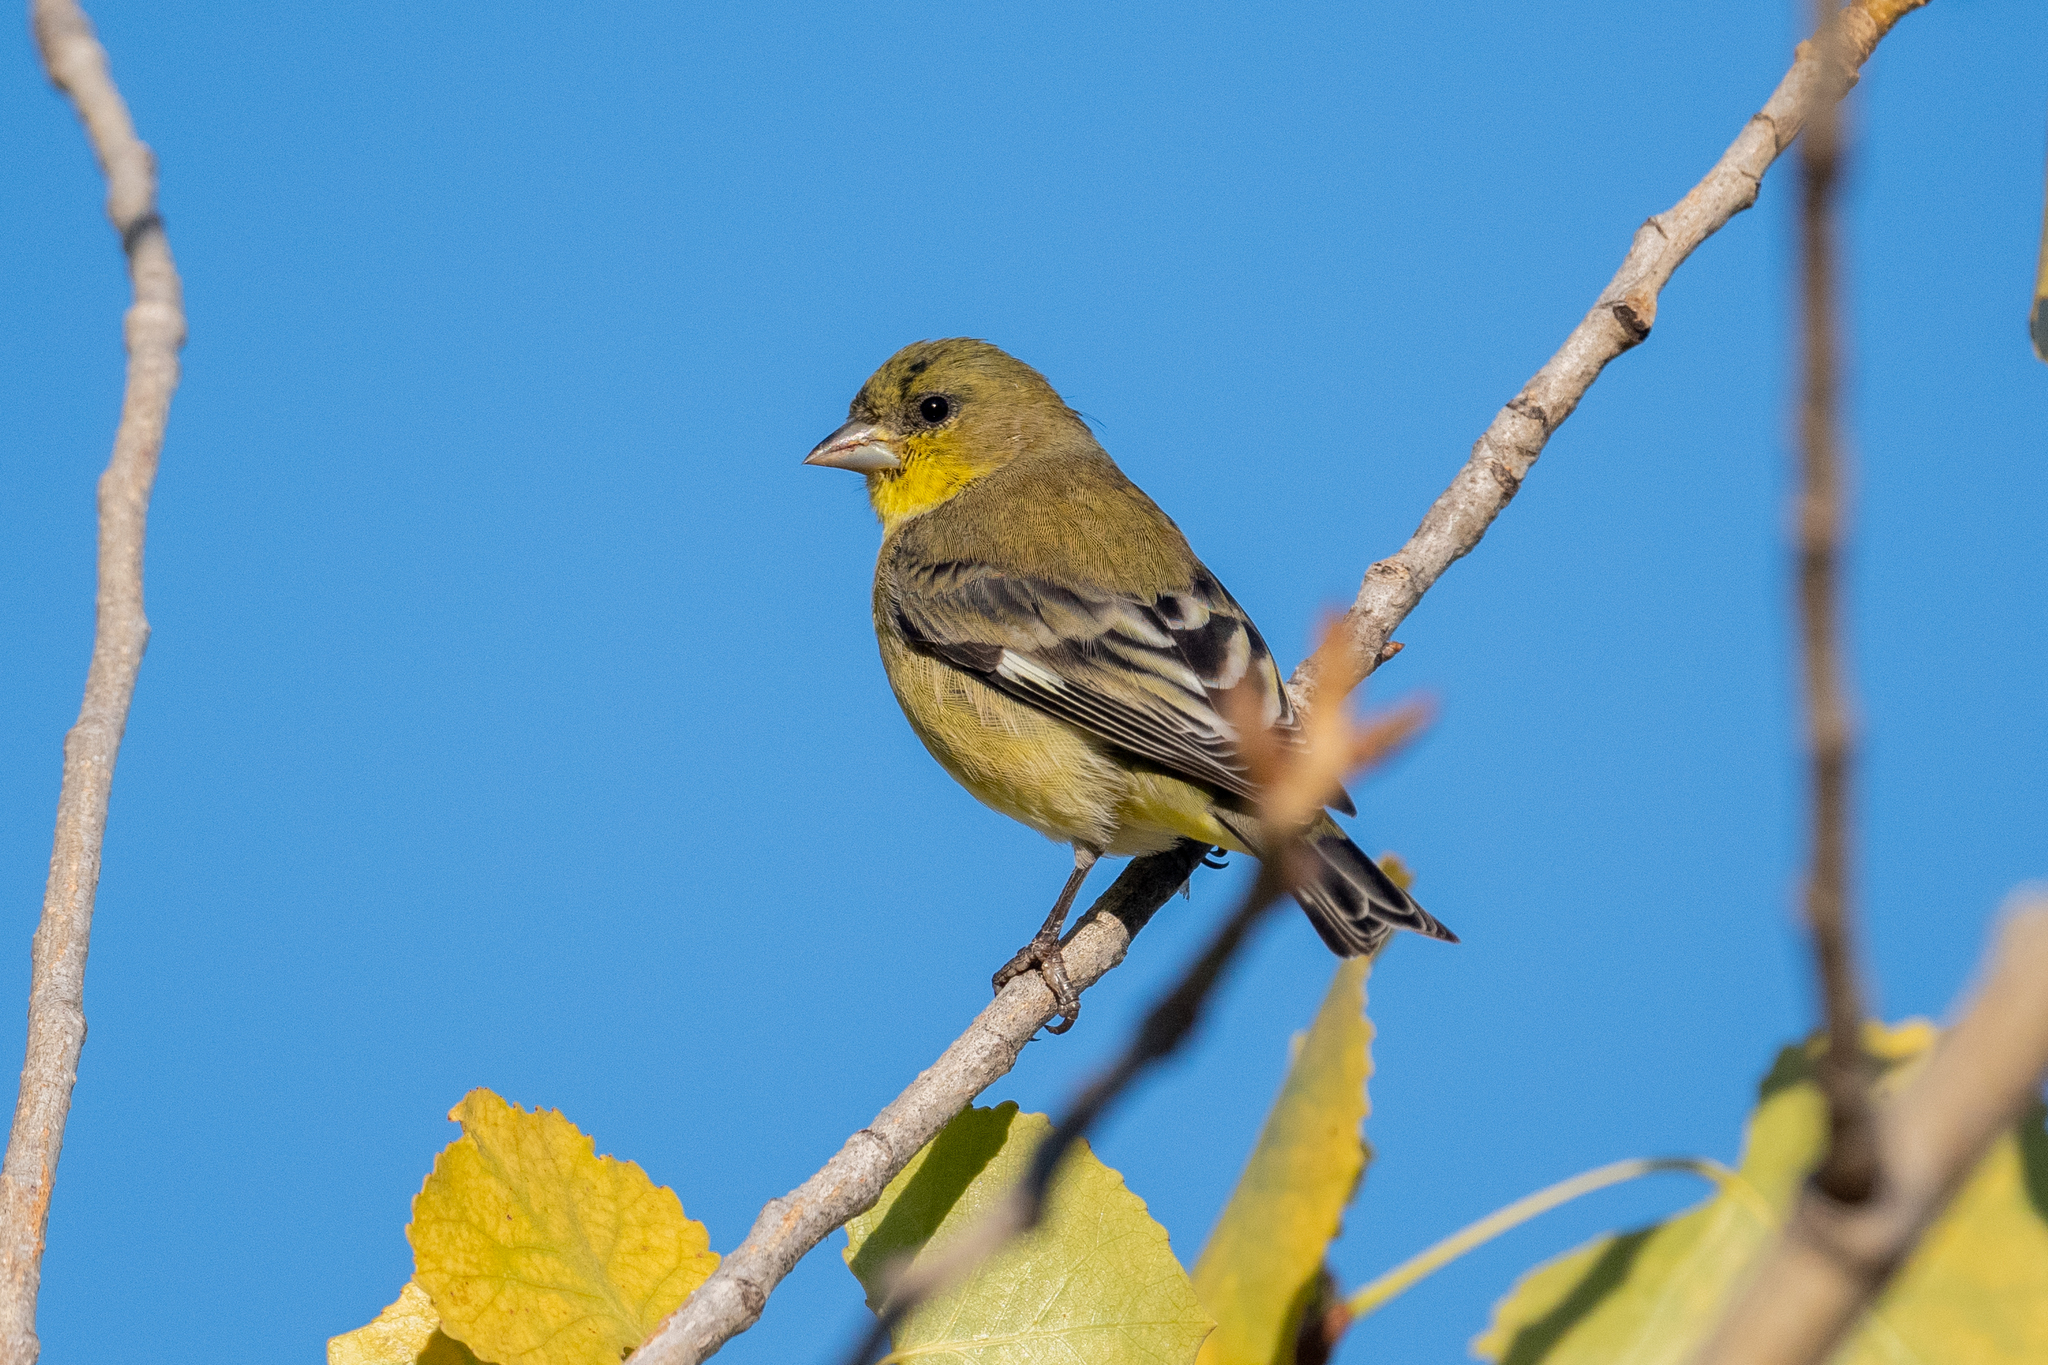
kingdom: Animalia
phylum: Chordata
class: Aves
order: Passeriformes
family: Fringillidae
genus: Spinus
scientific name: Spinus psaltria
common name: Lesser goldfinch
